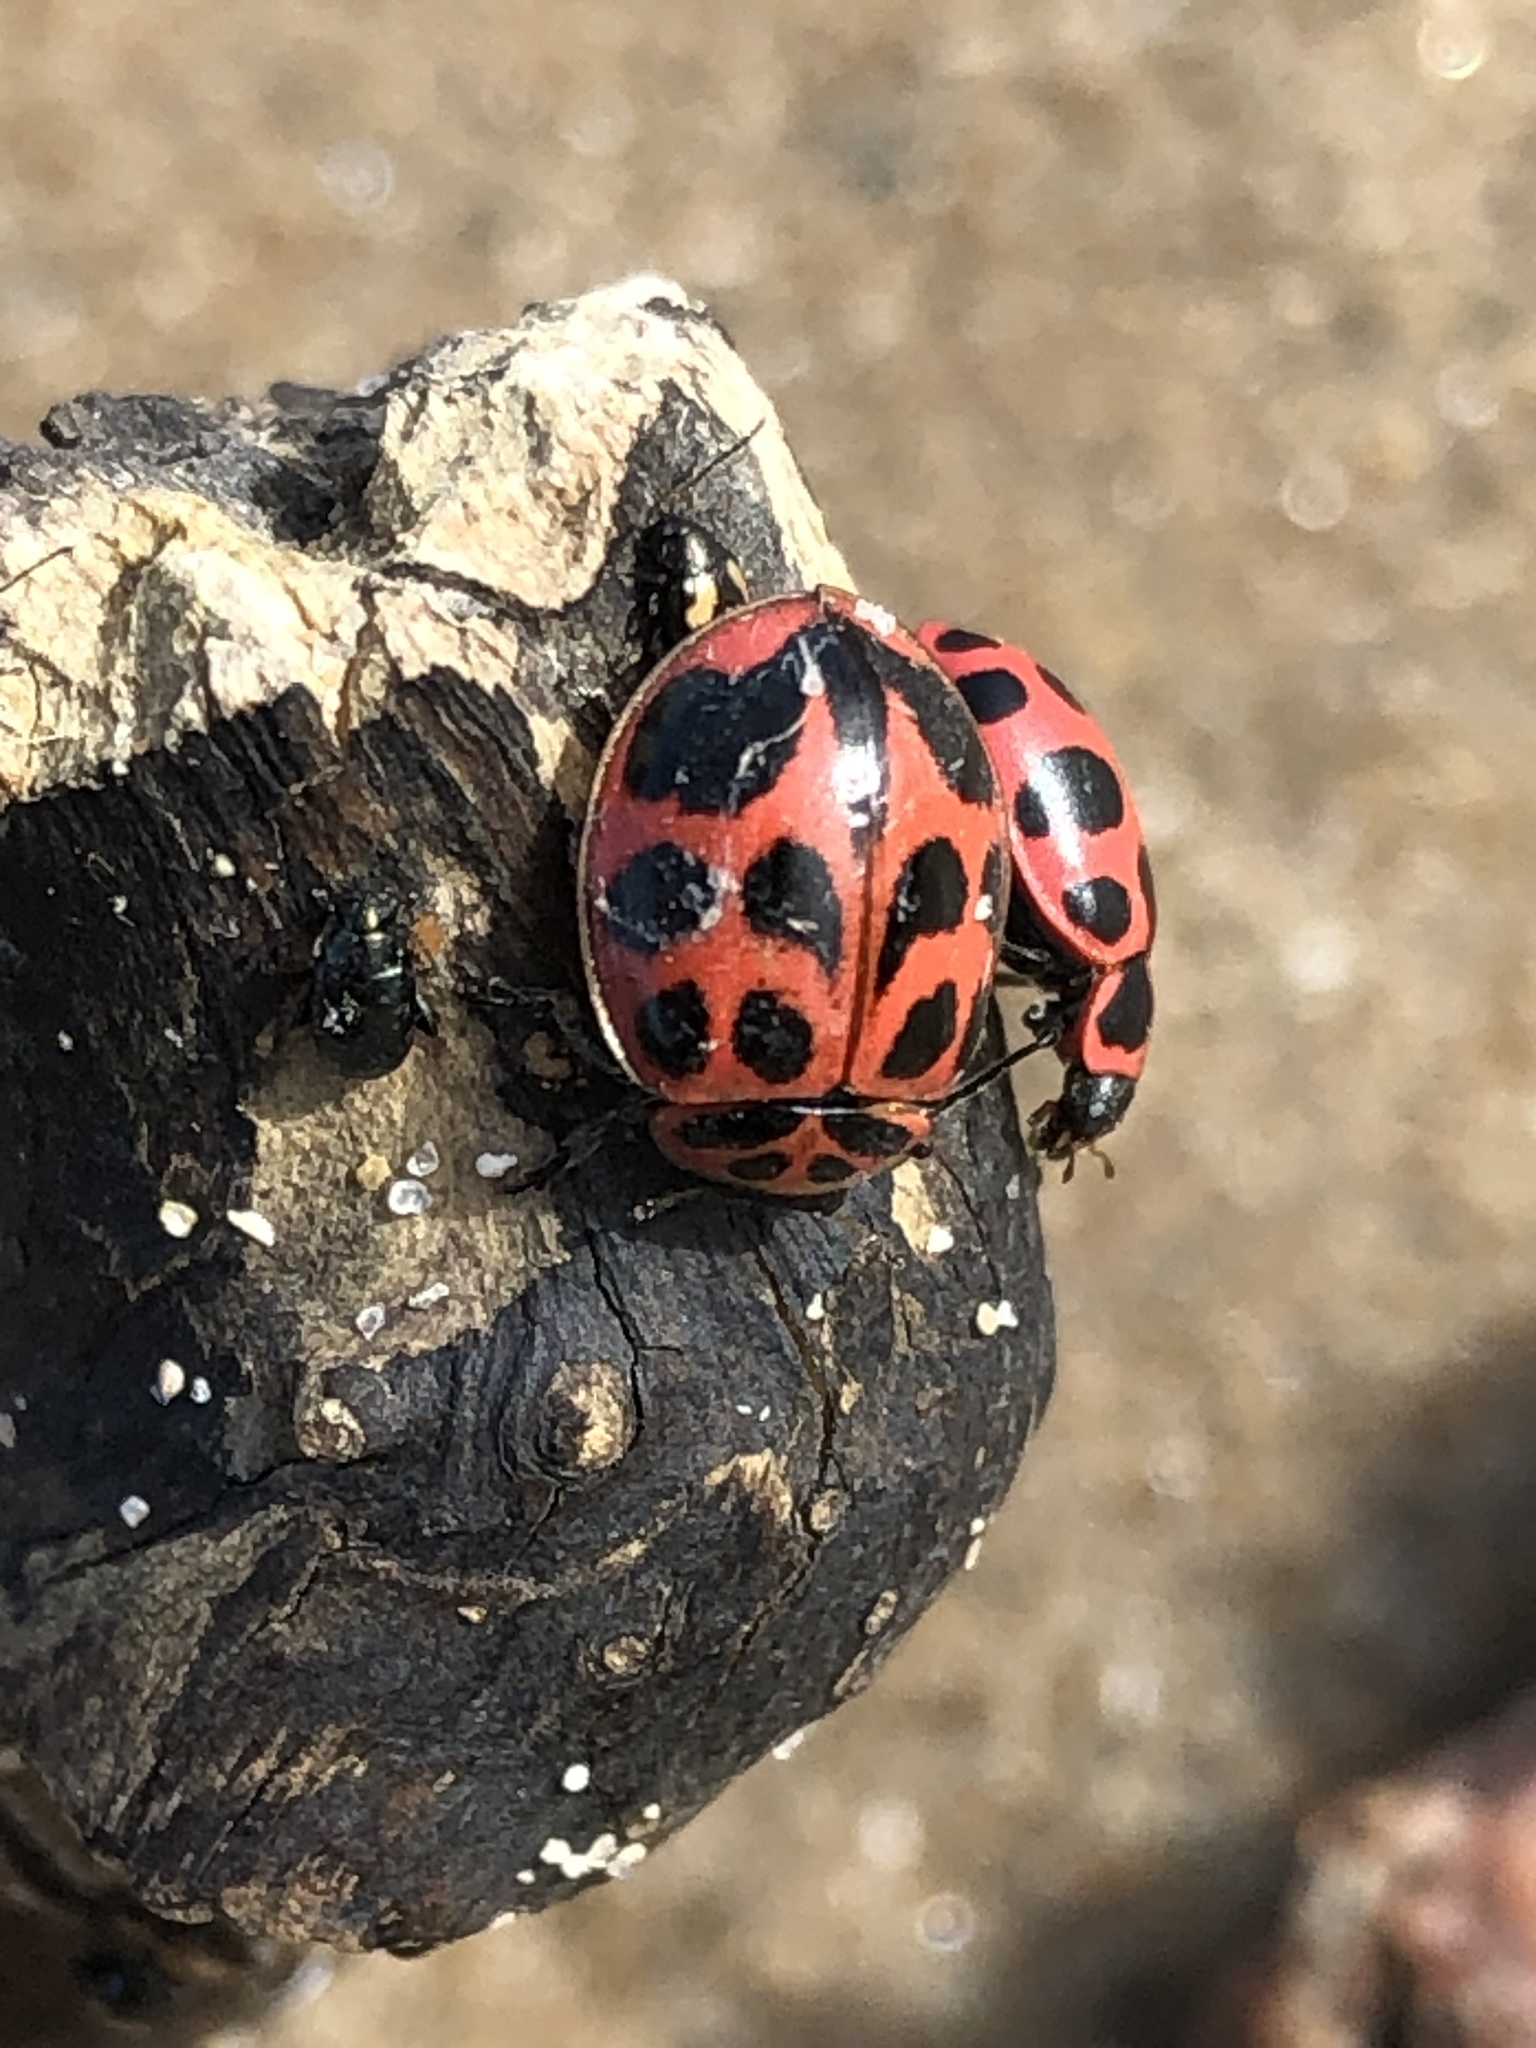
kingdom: Animalia
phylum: Arthropoda
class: Insecta
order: Coleoptera
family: Coccinellidae
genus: Coleomegilla
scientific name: Coleomegilla maculata
